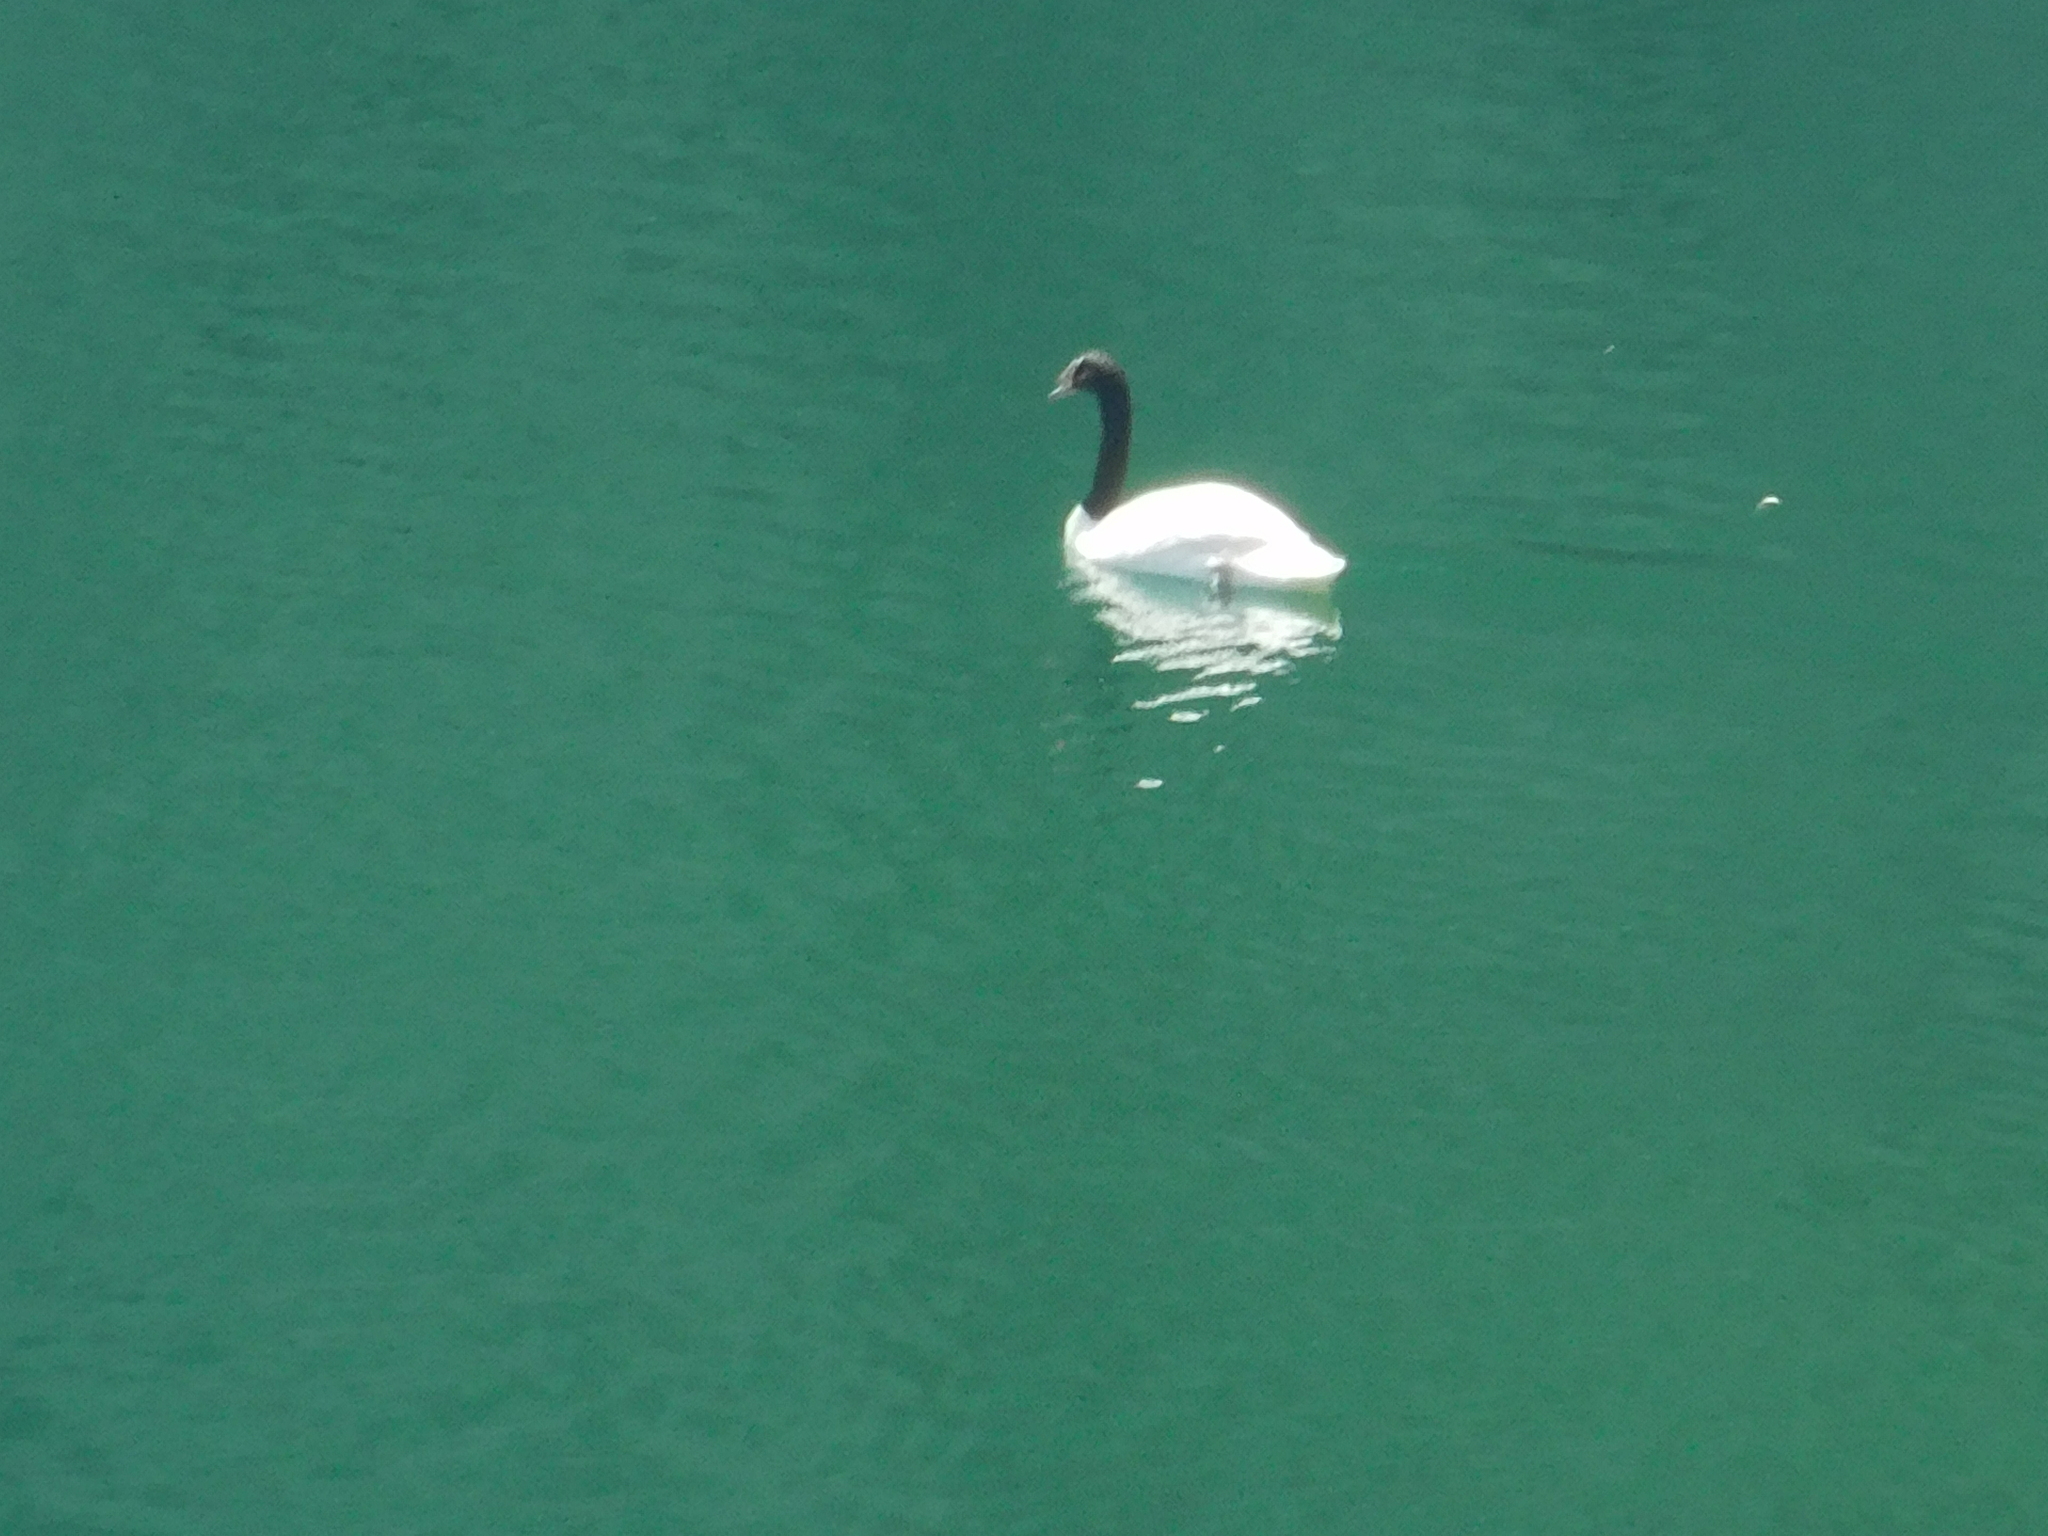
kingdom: Animalia
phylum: Chordata
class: Aves
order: Anseriformes
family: Anatidae
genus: Cygnus
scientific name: Cygnus melancoryphus
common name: Black-necked swan
